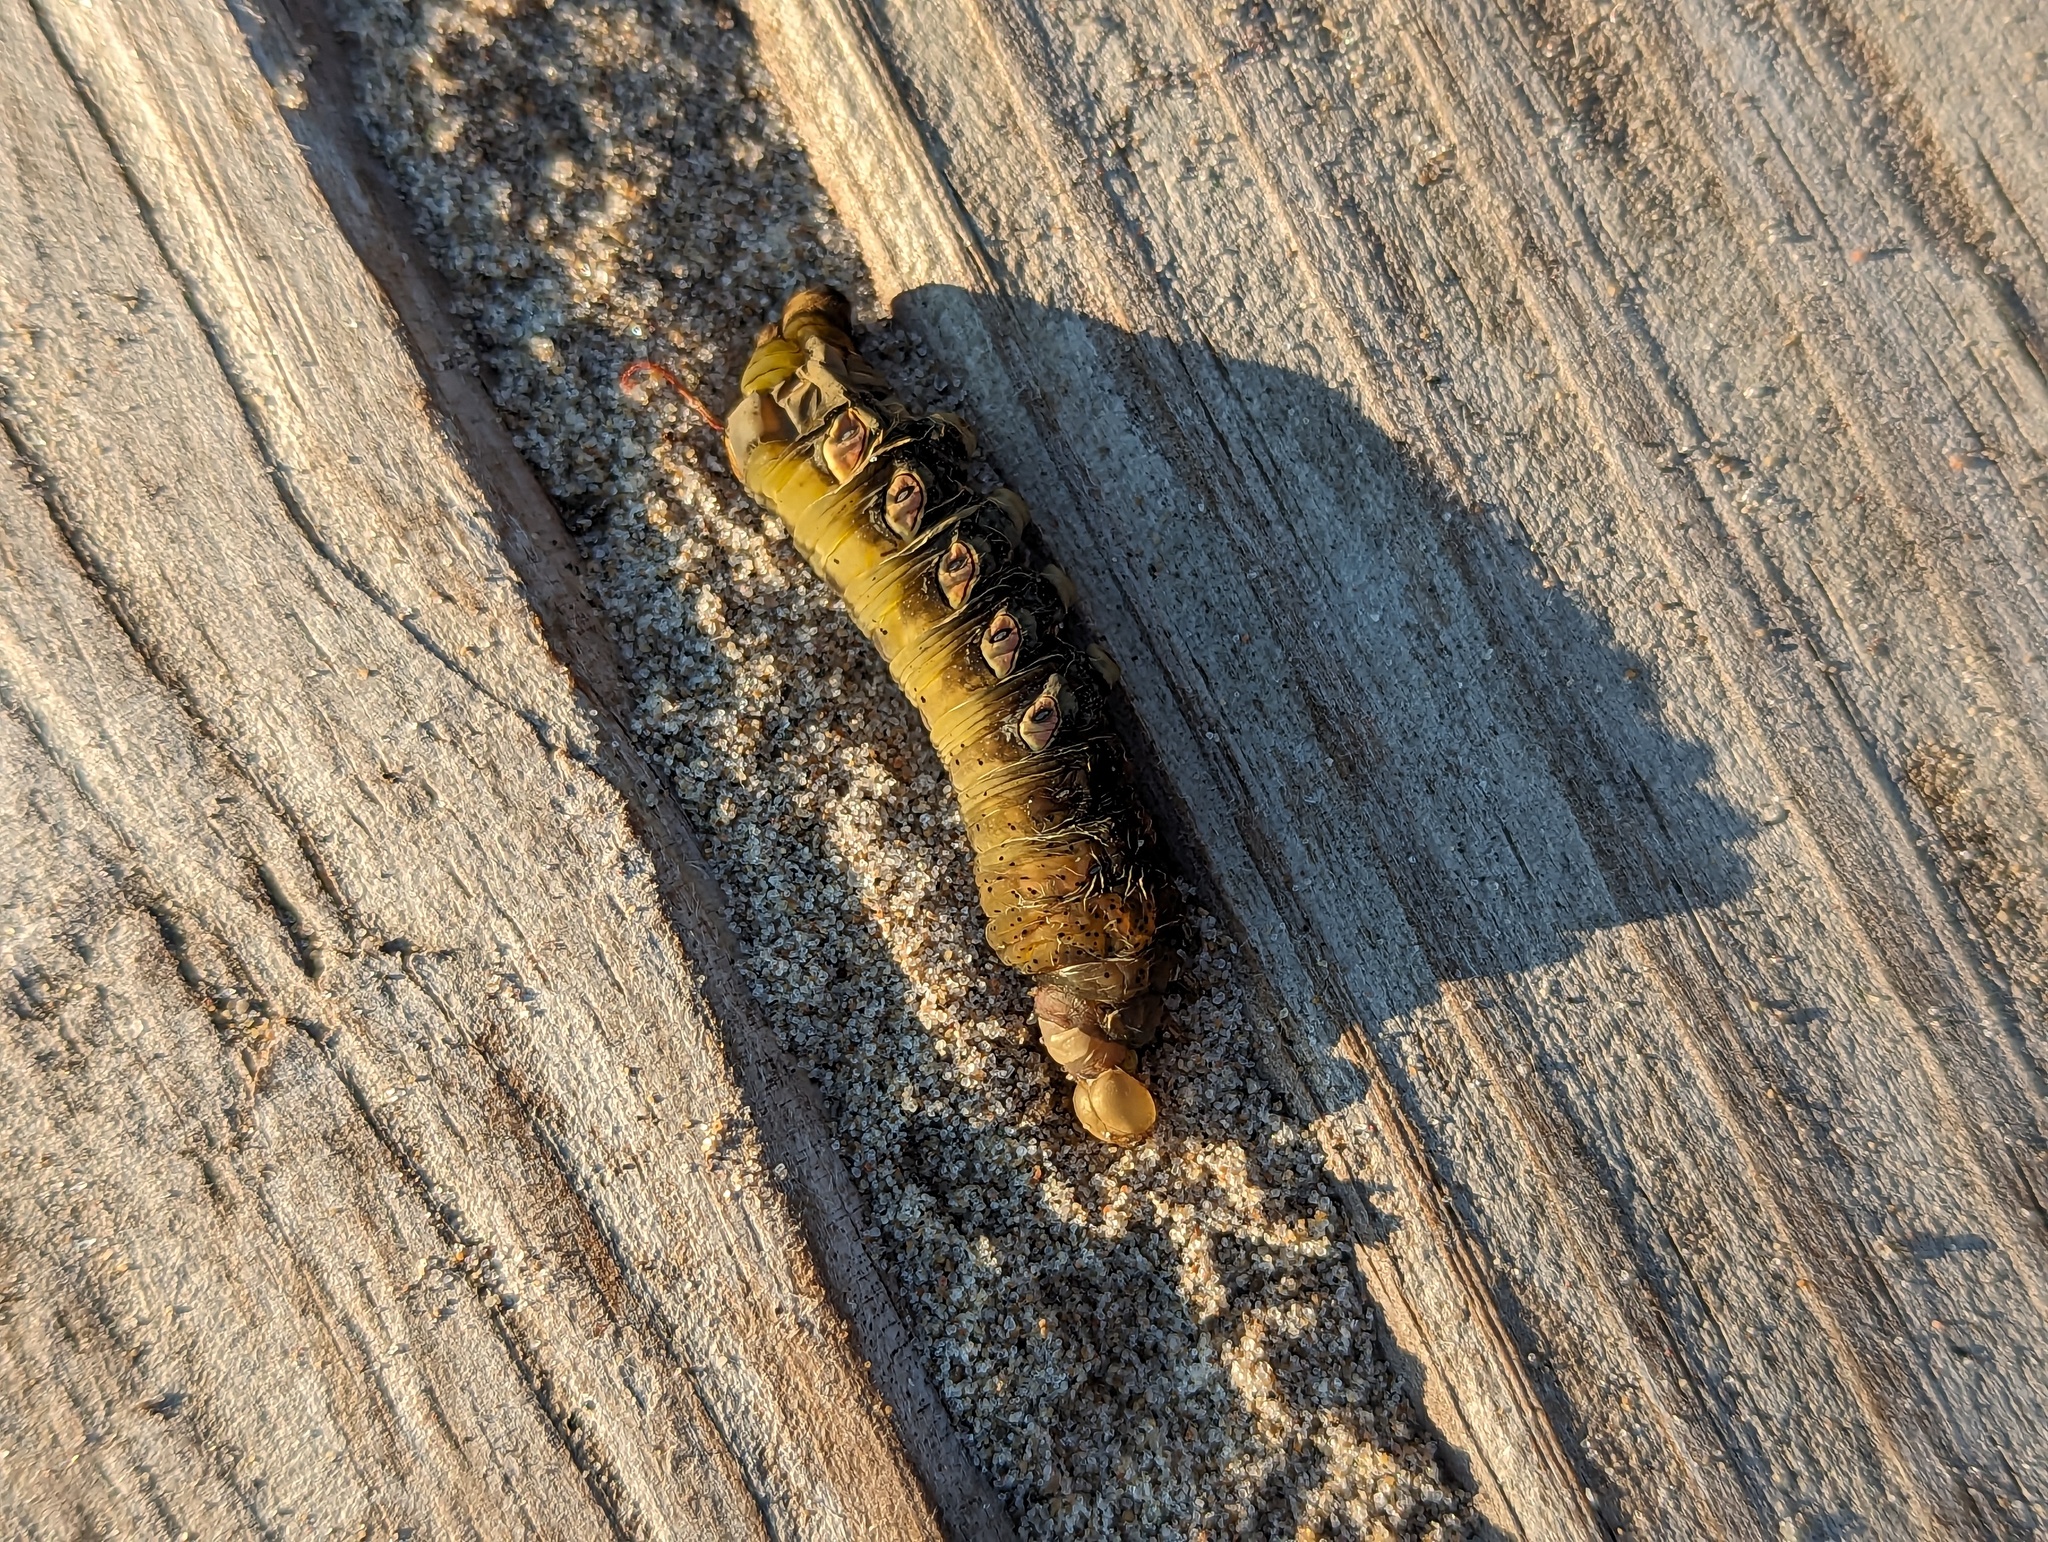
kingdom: Animalia
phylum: Arthropoda
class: Insecta
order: Lepidoptera
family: Sphingidae
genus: Eumorpha
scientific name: Eumorpha pandorus
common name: Pandora sphinx
